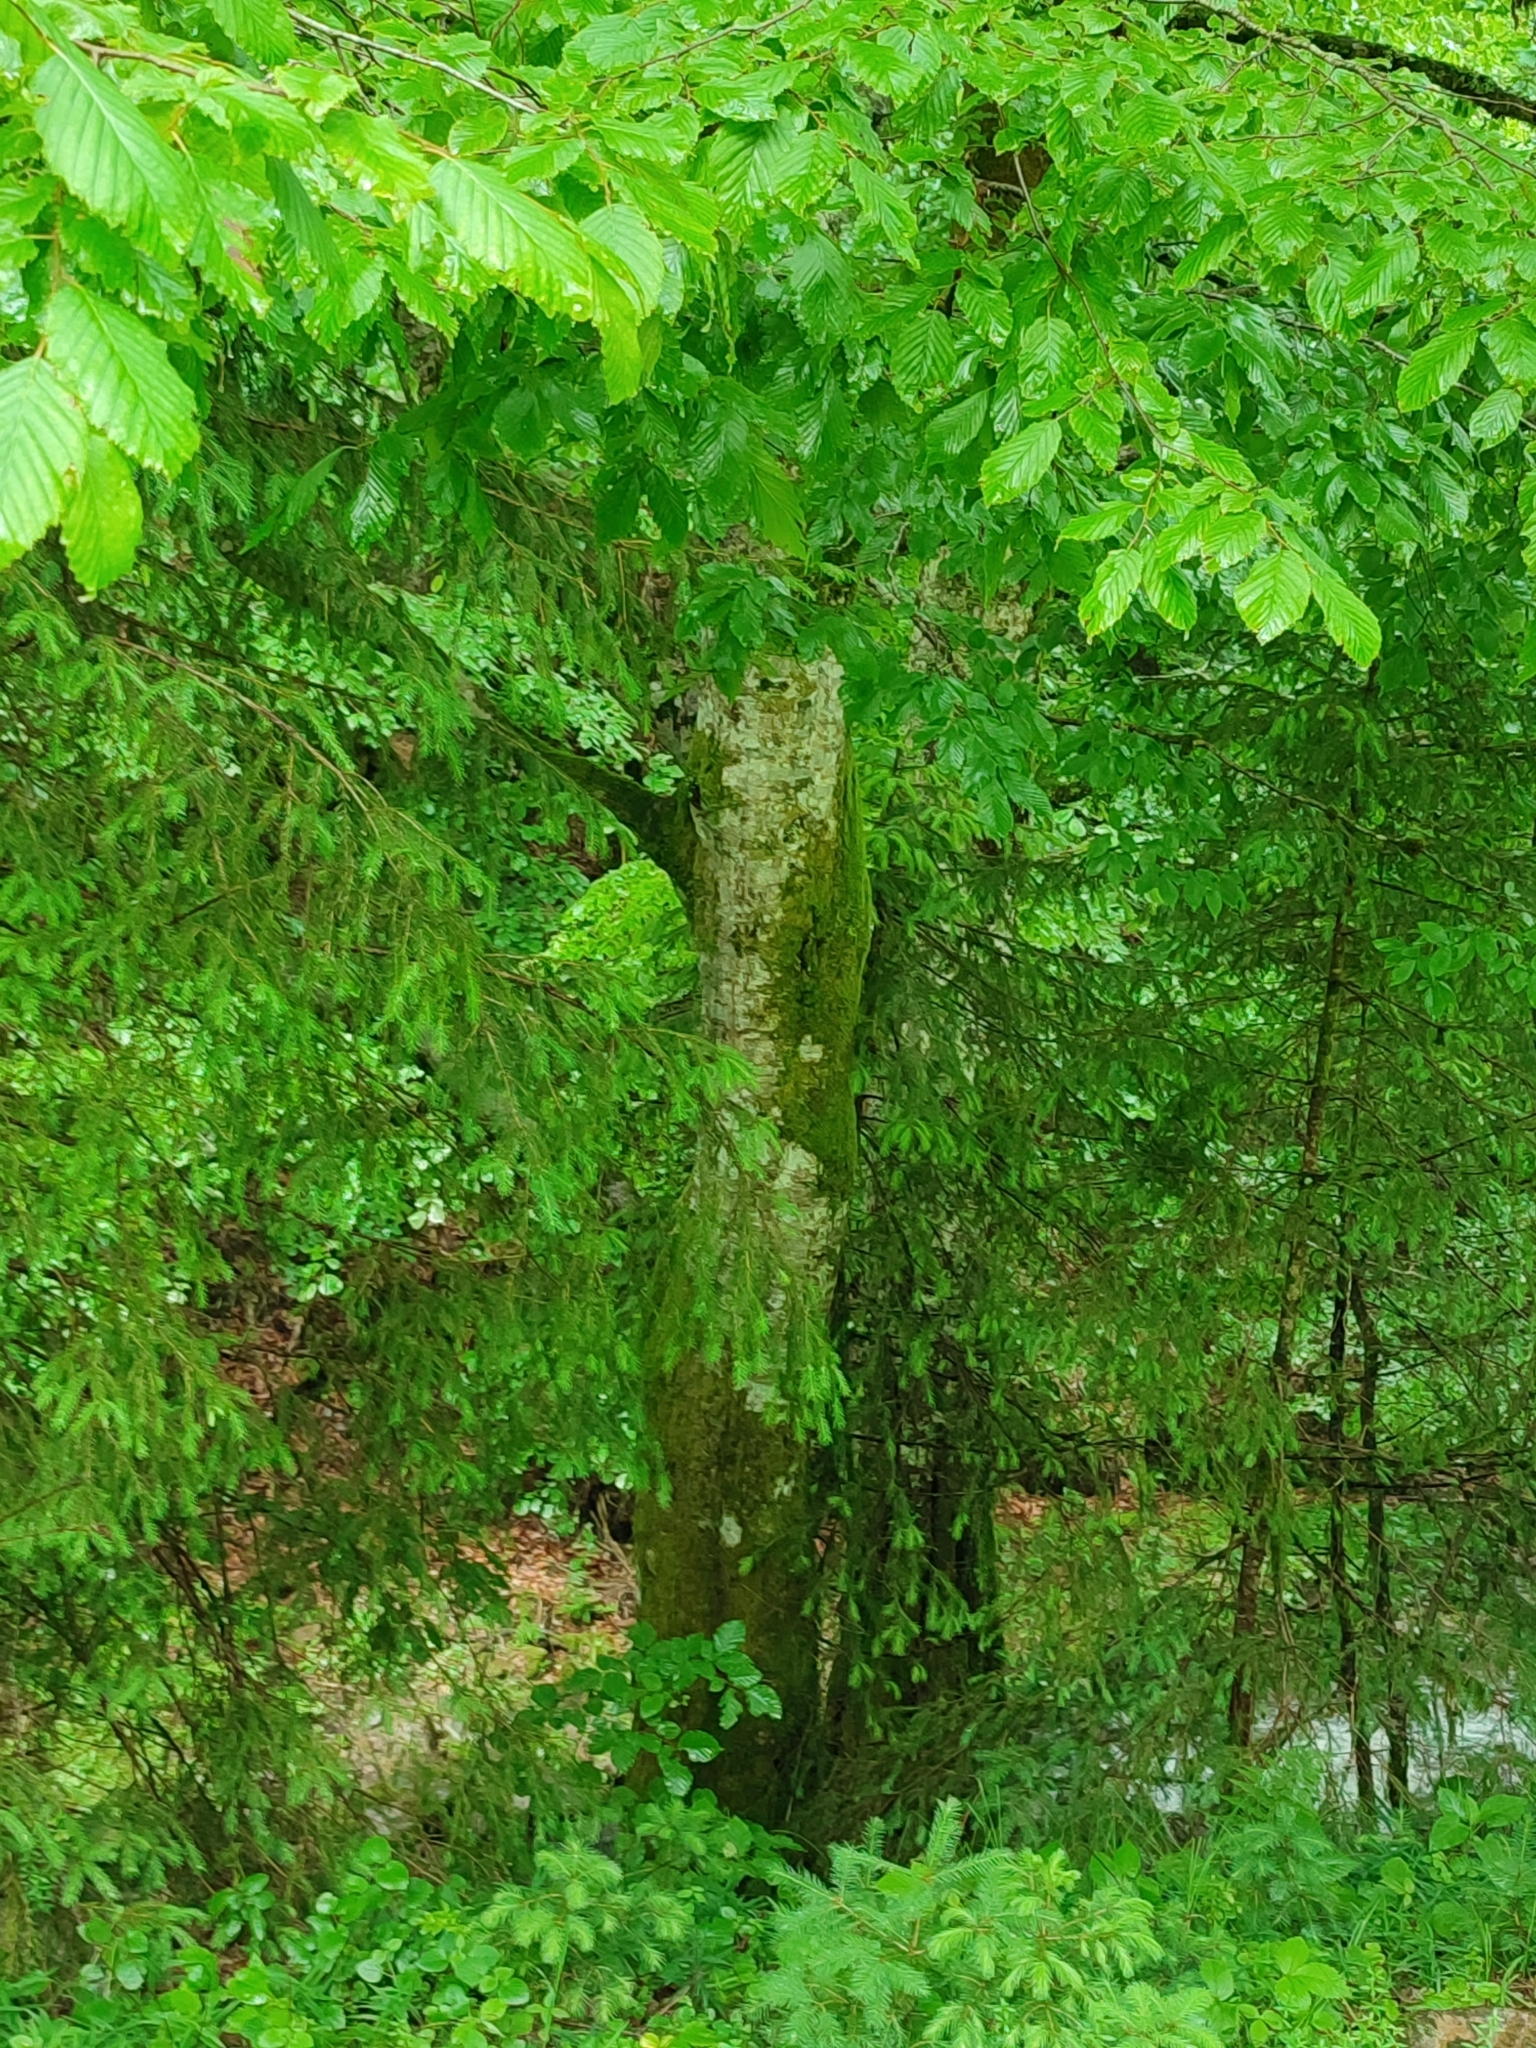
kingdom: Plantae
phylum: Tracheophyta
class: Magnoliopsida
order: Fagales
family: Betulaceae
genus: Carpinus
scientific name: Carpinus betulus
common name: Hornbeam
